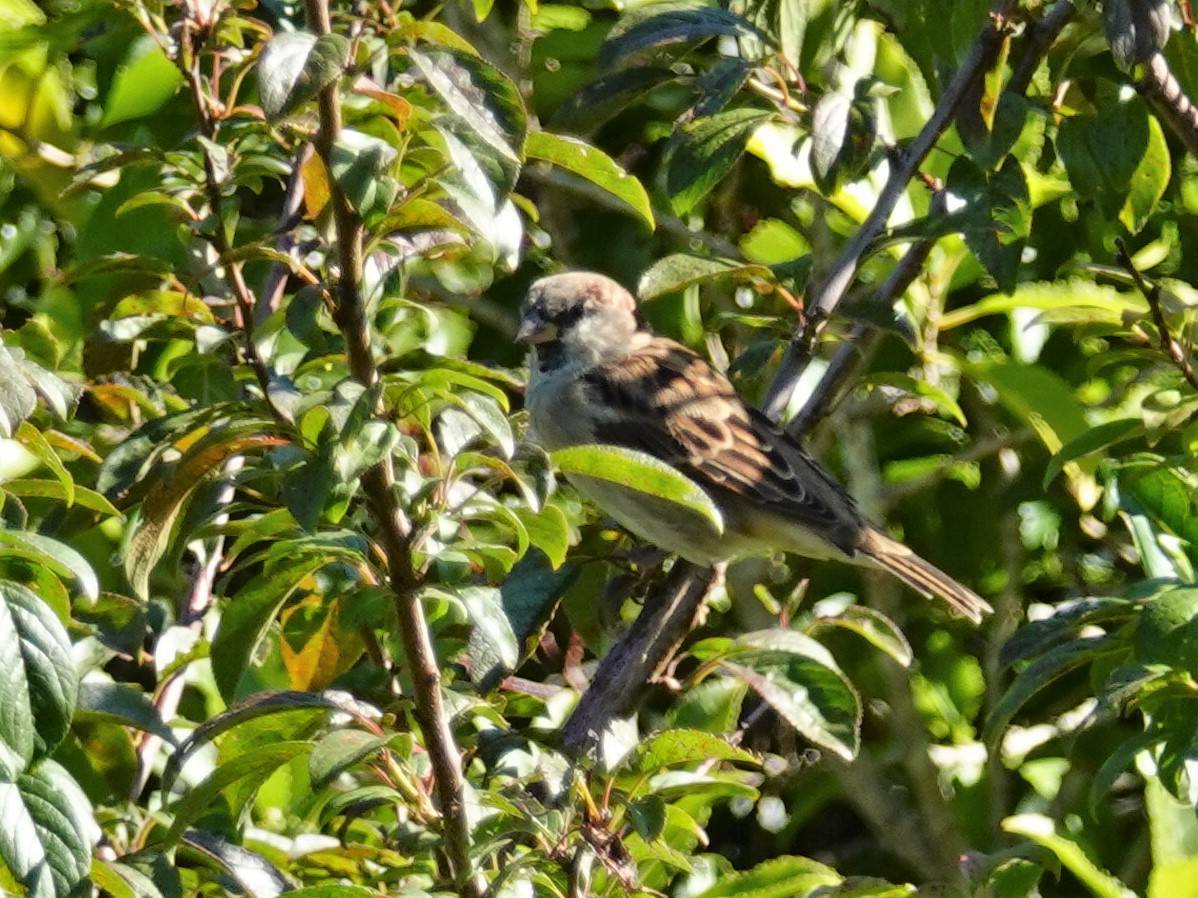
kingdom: Animalia
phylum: Chordata
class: Aves
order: Passeriformes
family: Passeridae
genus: Passer
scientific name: Passer domesticus
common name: House sparrow
